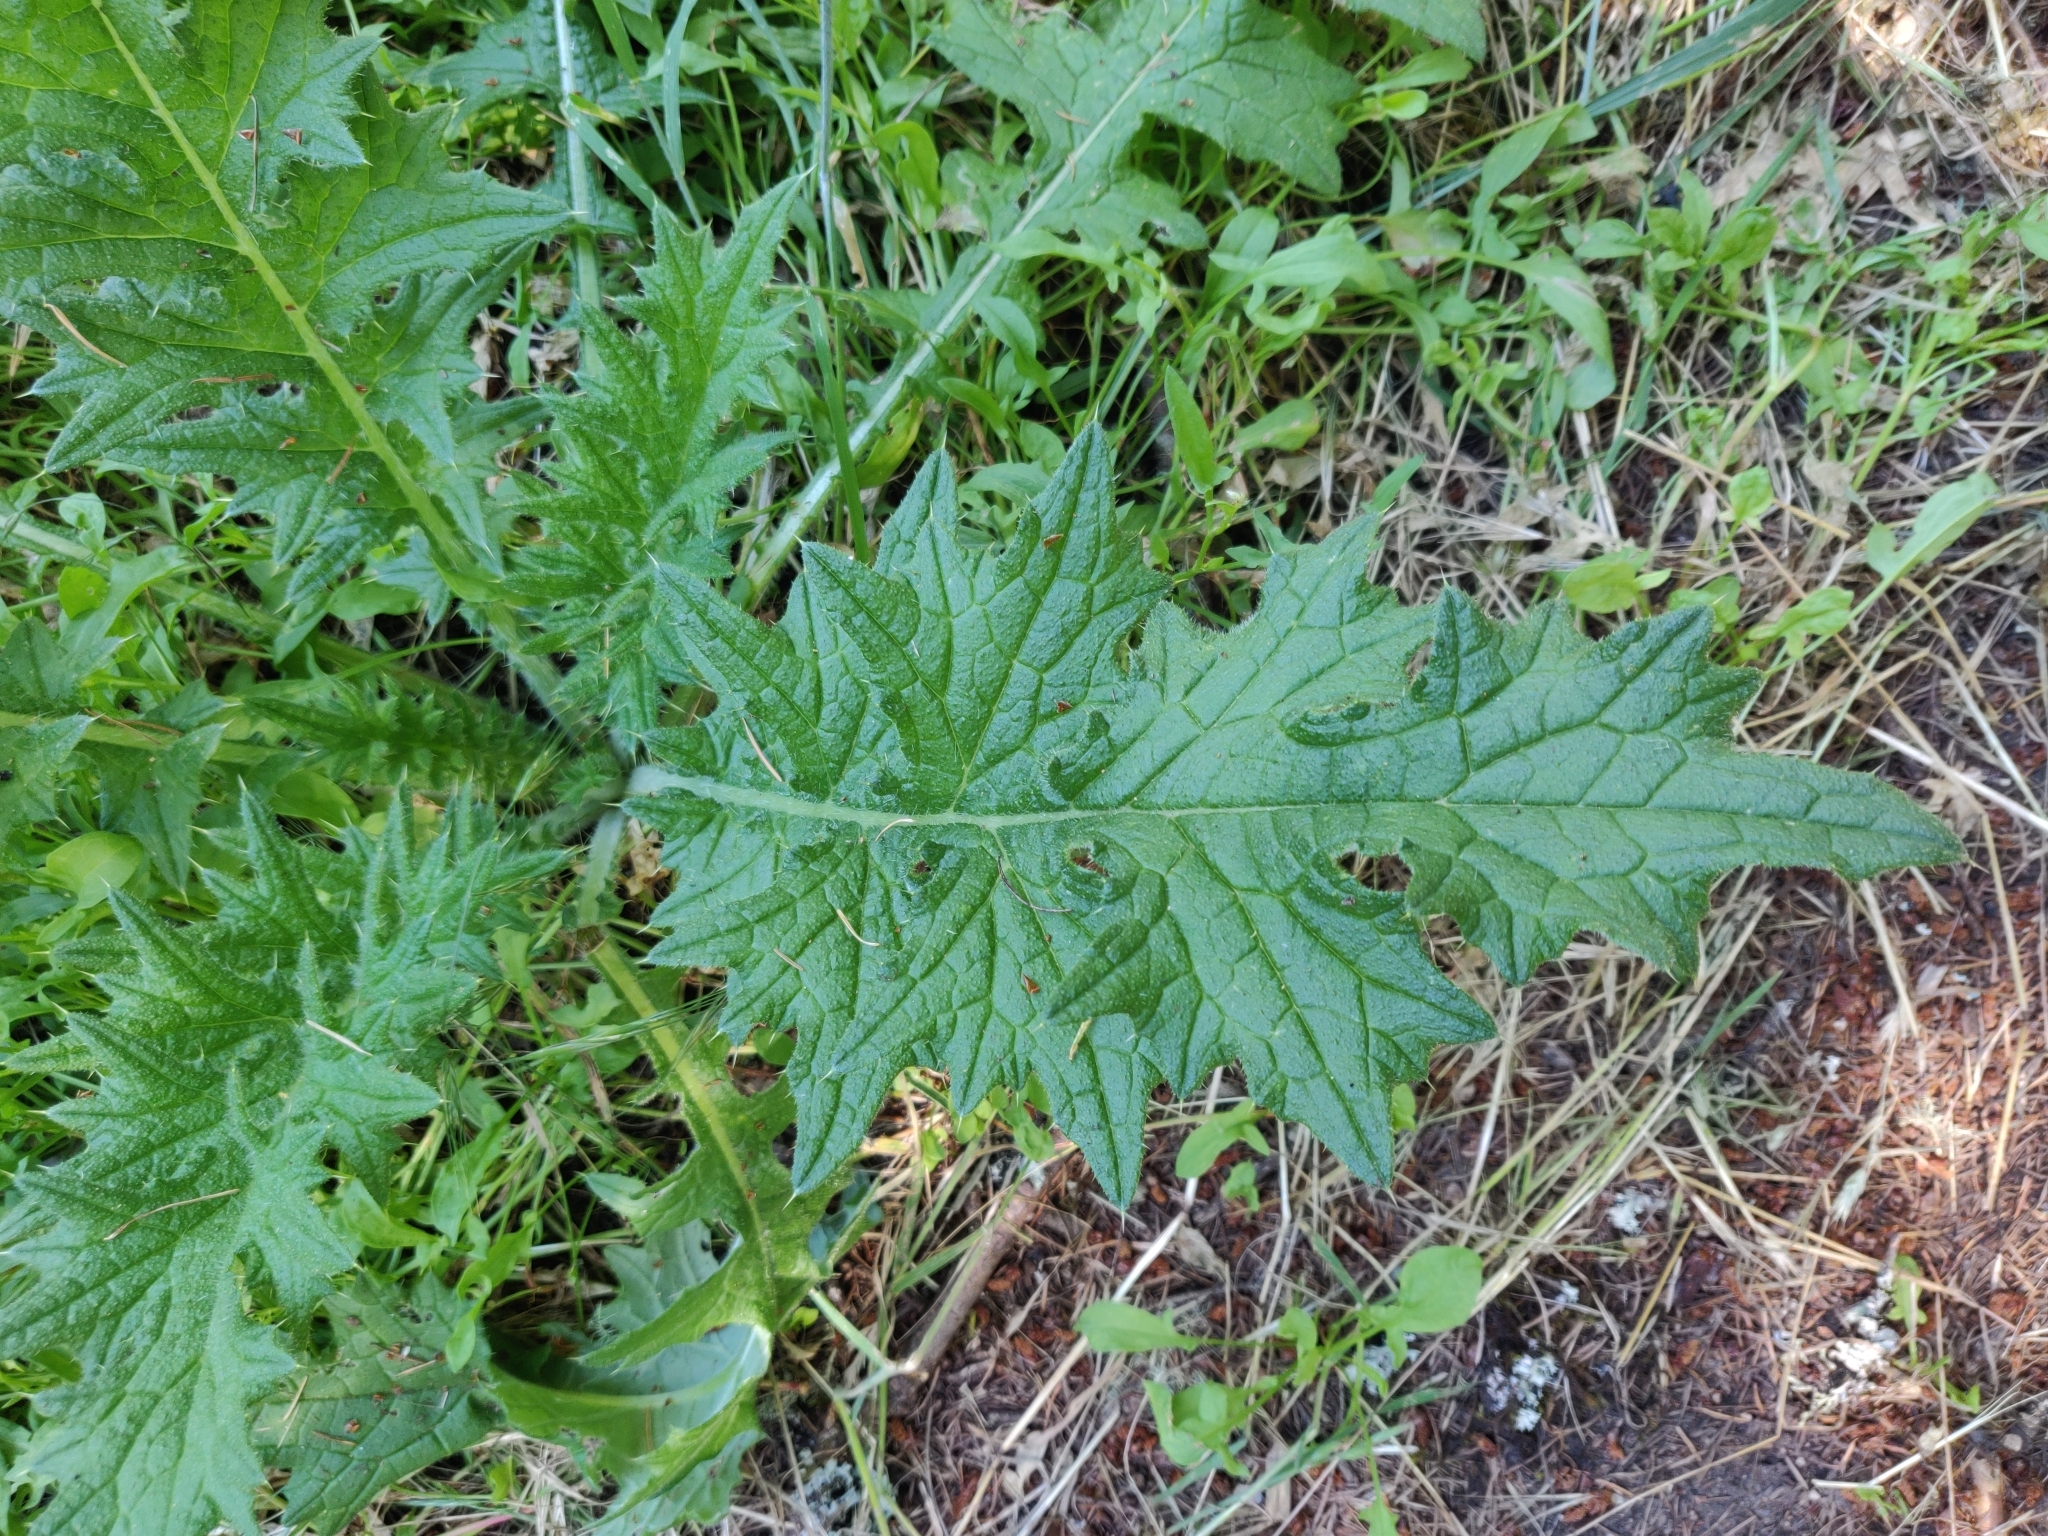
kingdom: Plantae
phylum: Tracheophyta
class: Magnoliopsida
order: Asterales
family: Asteraceae
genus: Cirsium
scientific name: Cirsium vulgare
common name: Bull thistle
